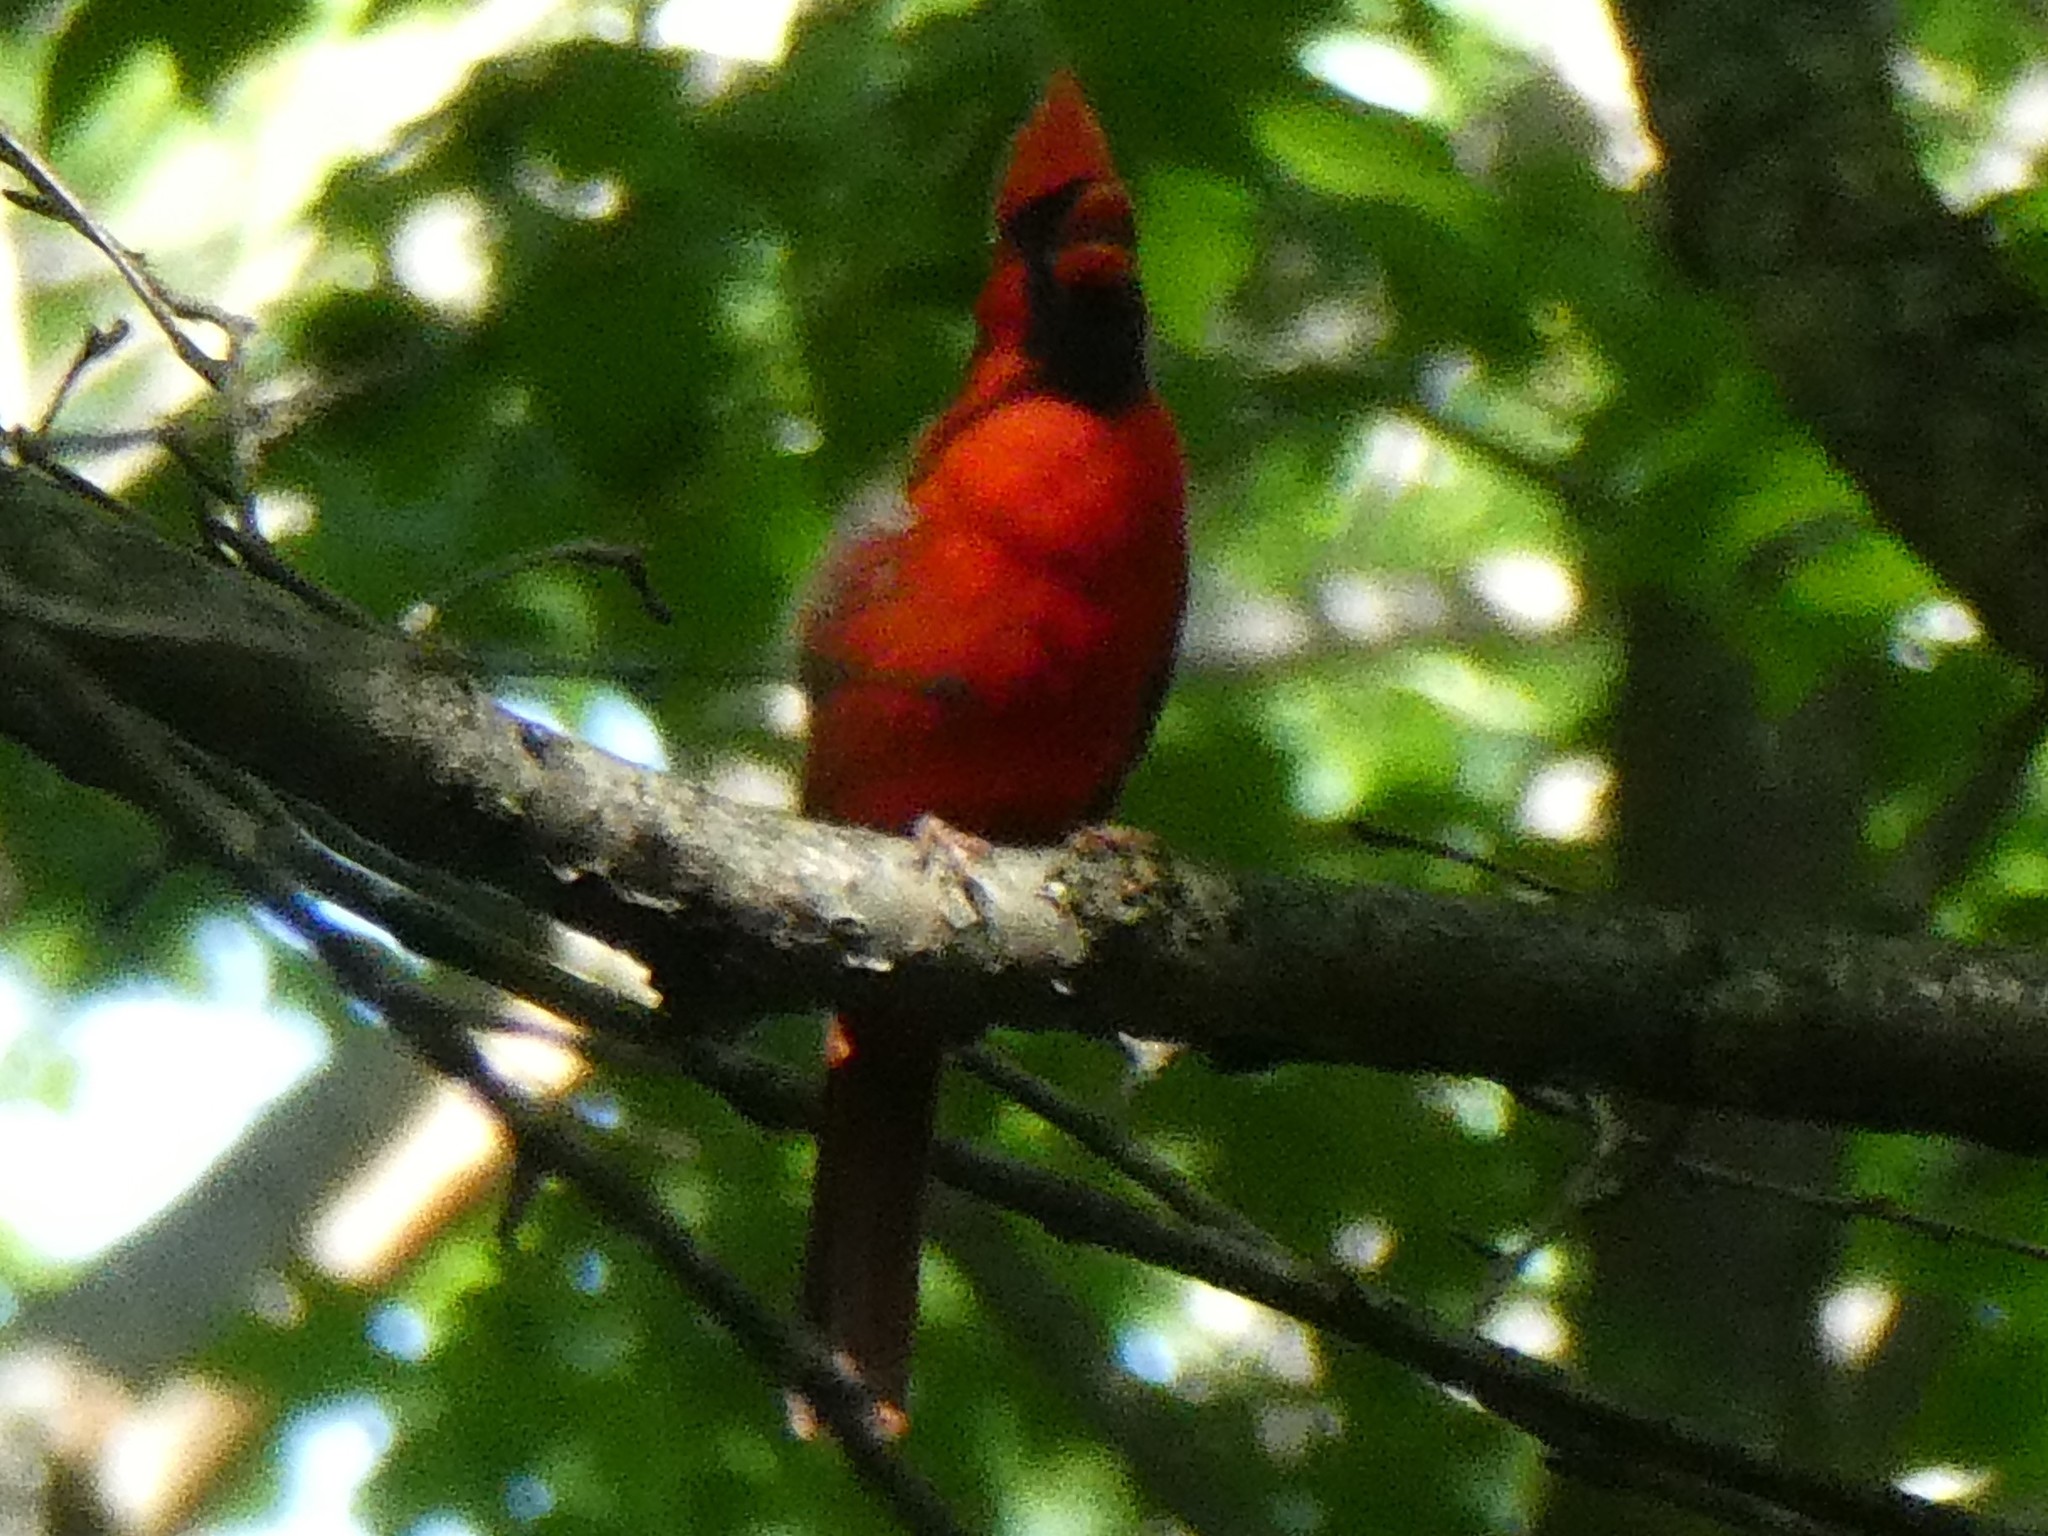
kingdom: Animalia
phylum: Chordata
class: Aves
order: Passeriformes
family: Cardinalidae
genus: Cardinalis
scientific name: Cardinalis cardinalis
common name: Northern cardinal
